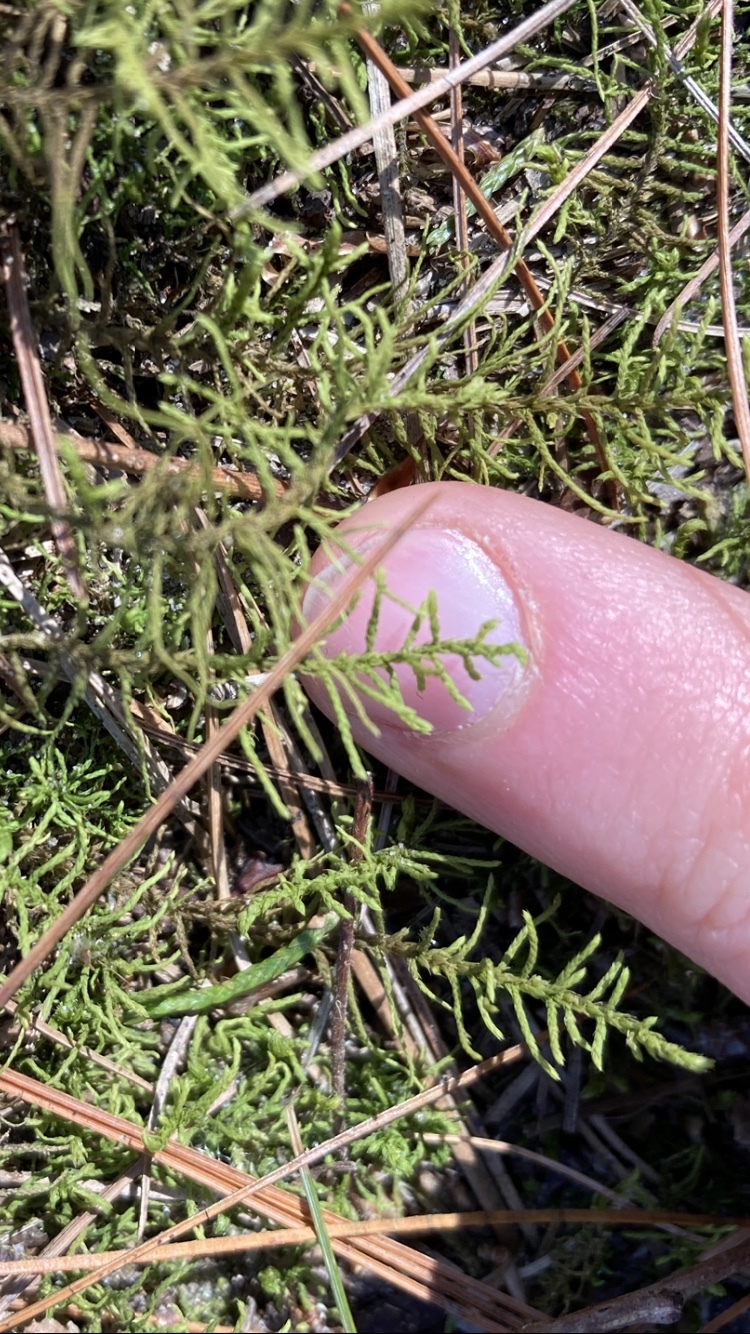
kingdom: Plantae
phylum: Bryophyta
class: Bryopsida
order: Hypnales
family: Thuidiaceae
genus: Abietinella
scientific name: Abietinella abietina
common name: Wiry fern moss
